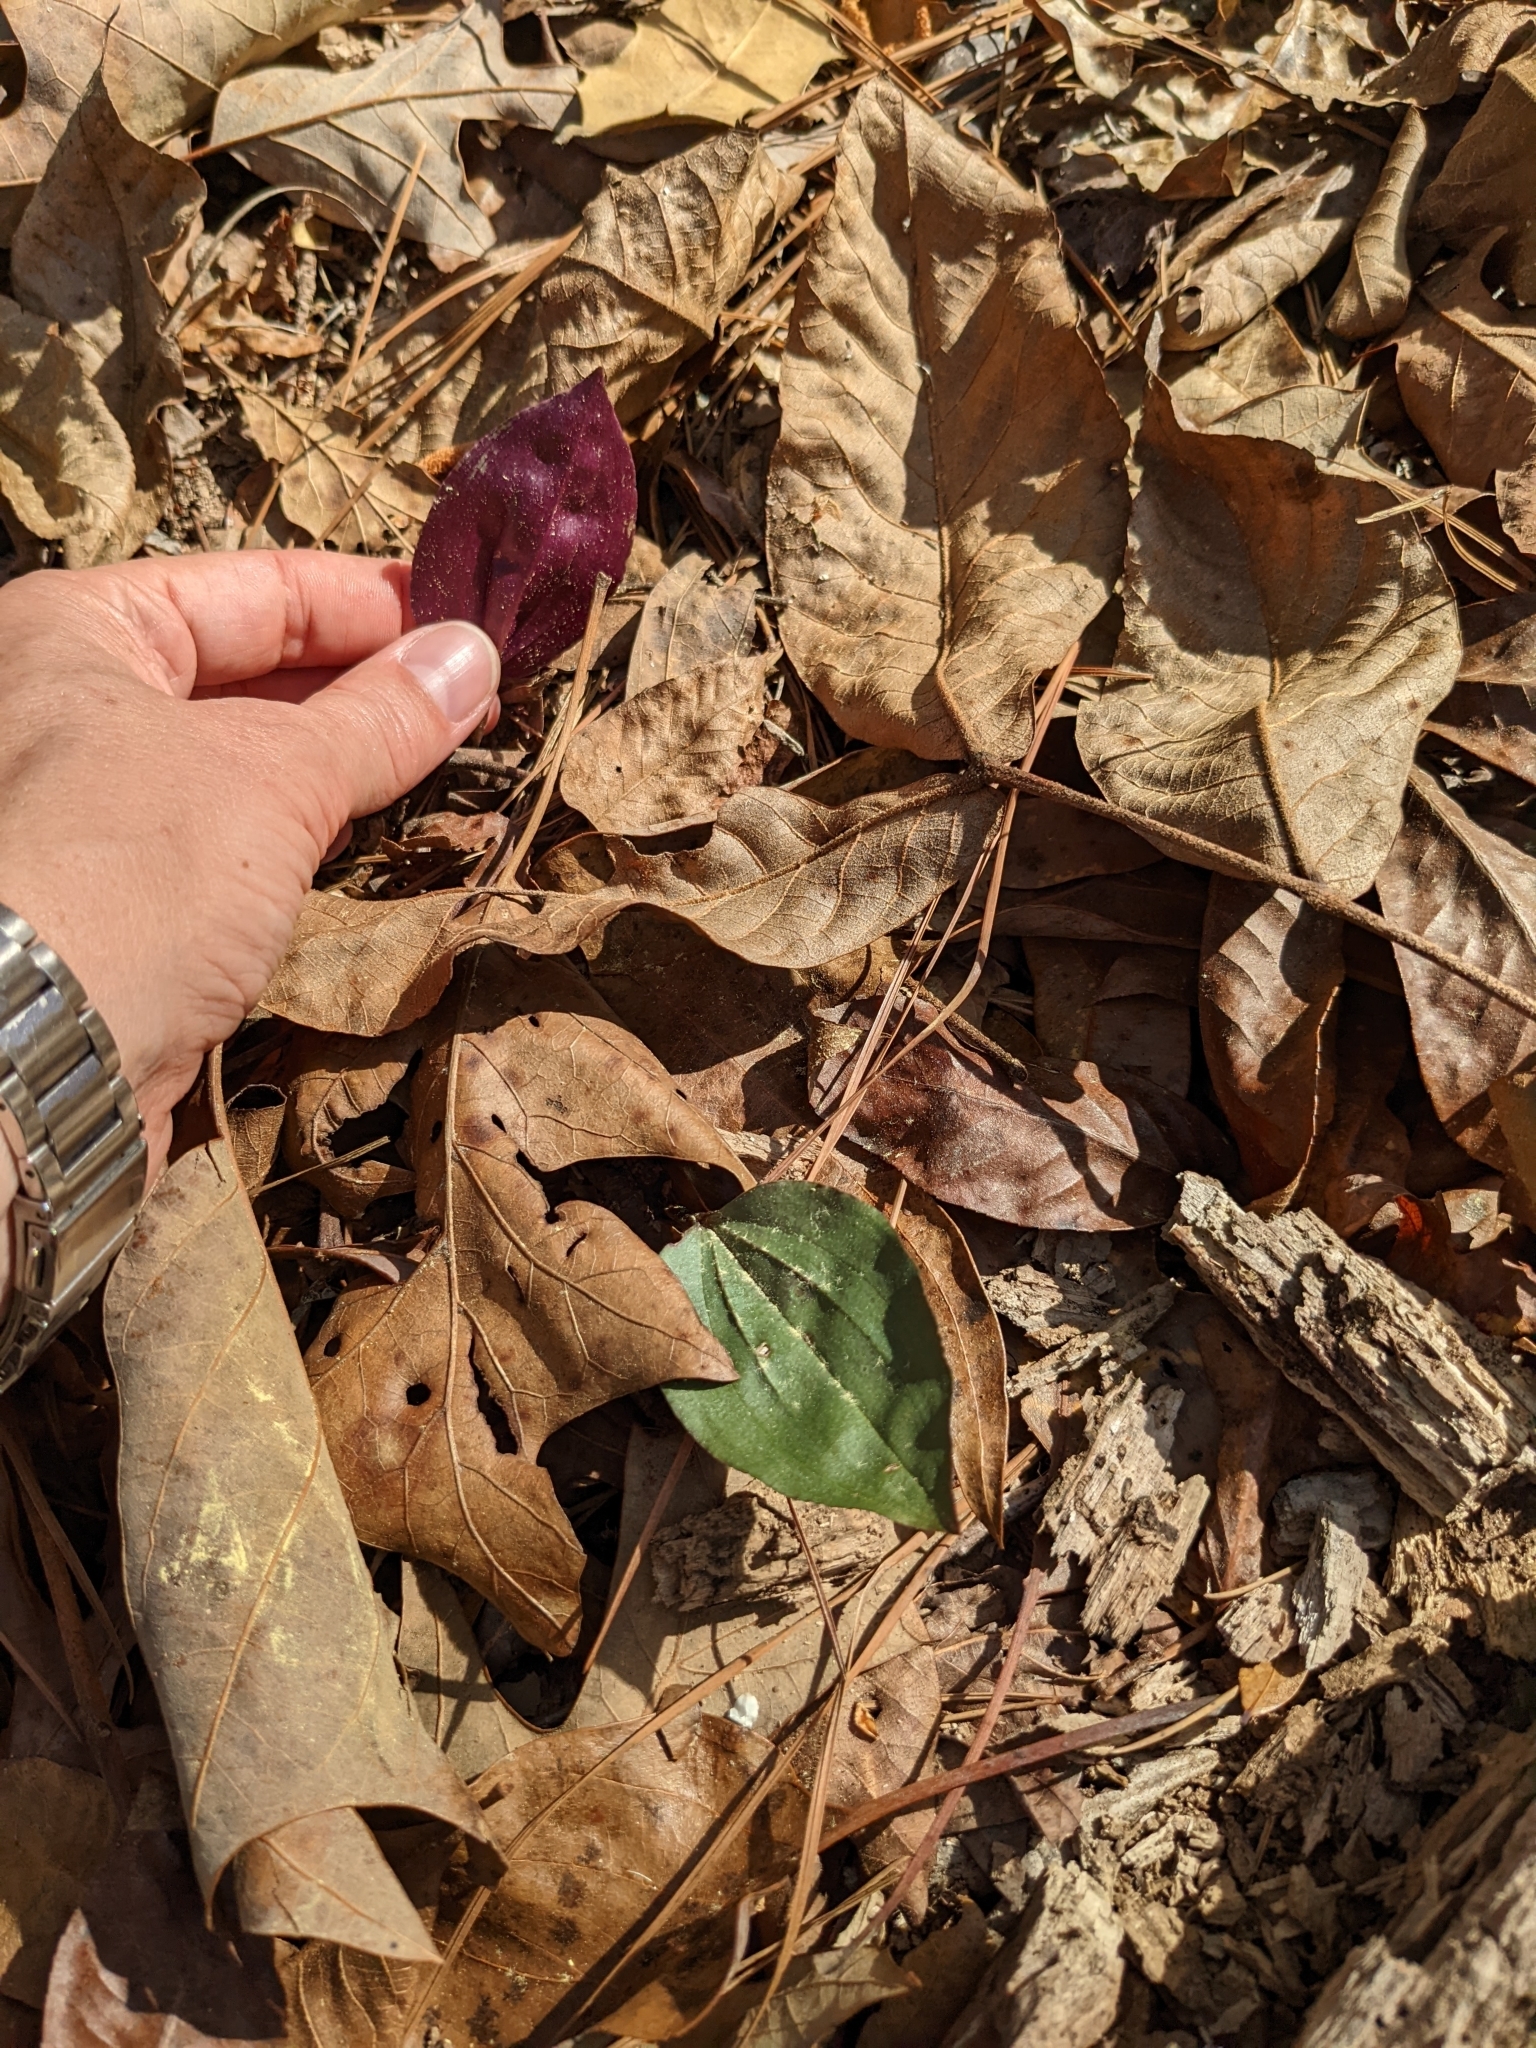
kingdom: Plantae
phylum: Tracheophyta
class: Liliopsida
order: Asparagales
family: Orchidaceae
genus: Tipularia
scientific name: Tipularia discolor
